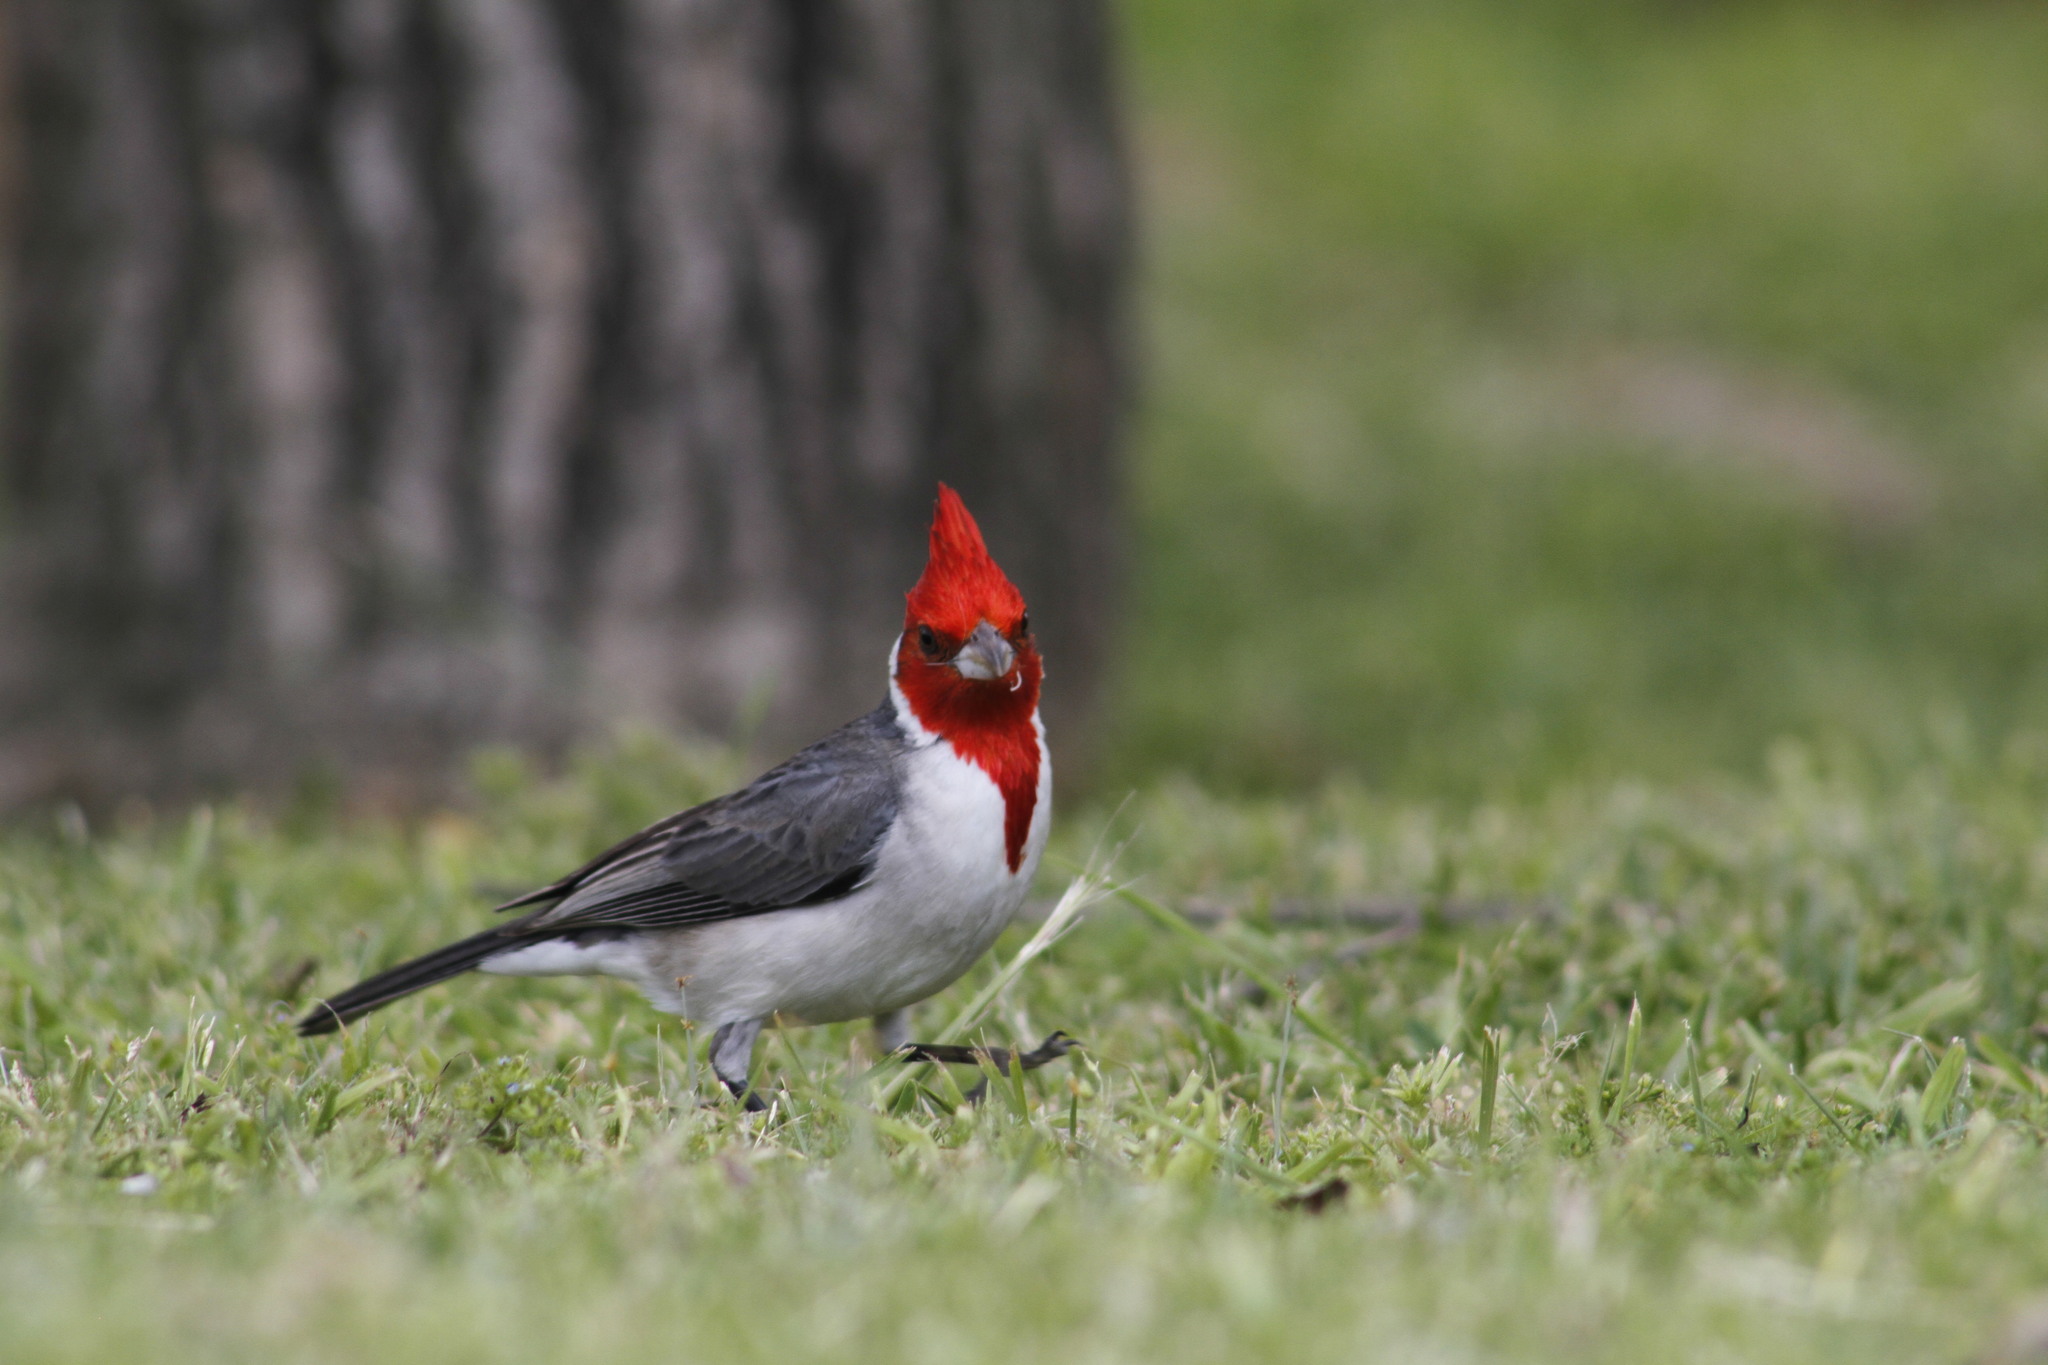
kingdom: Animalia
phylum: Chordata
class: Aves
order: Passeriformes
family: Thraupidae
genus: Paroaria
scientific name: Paroaria coronata
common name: Red-crested cardinal
